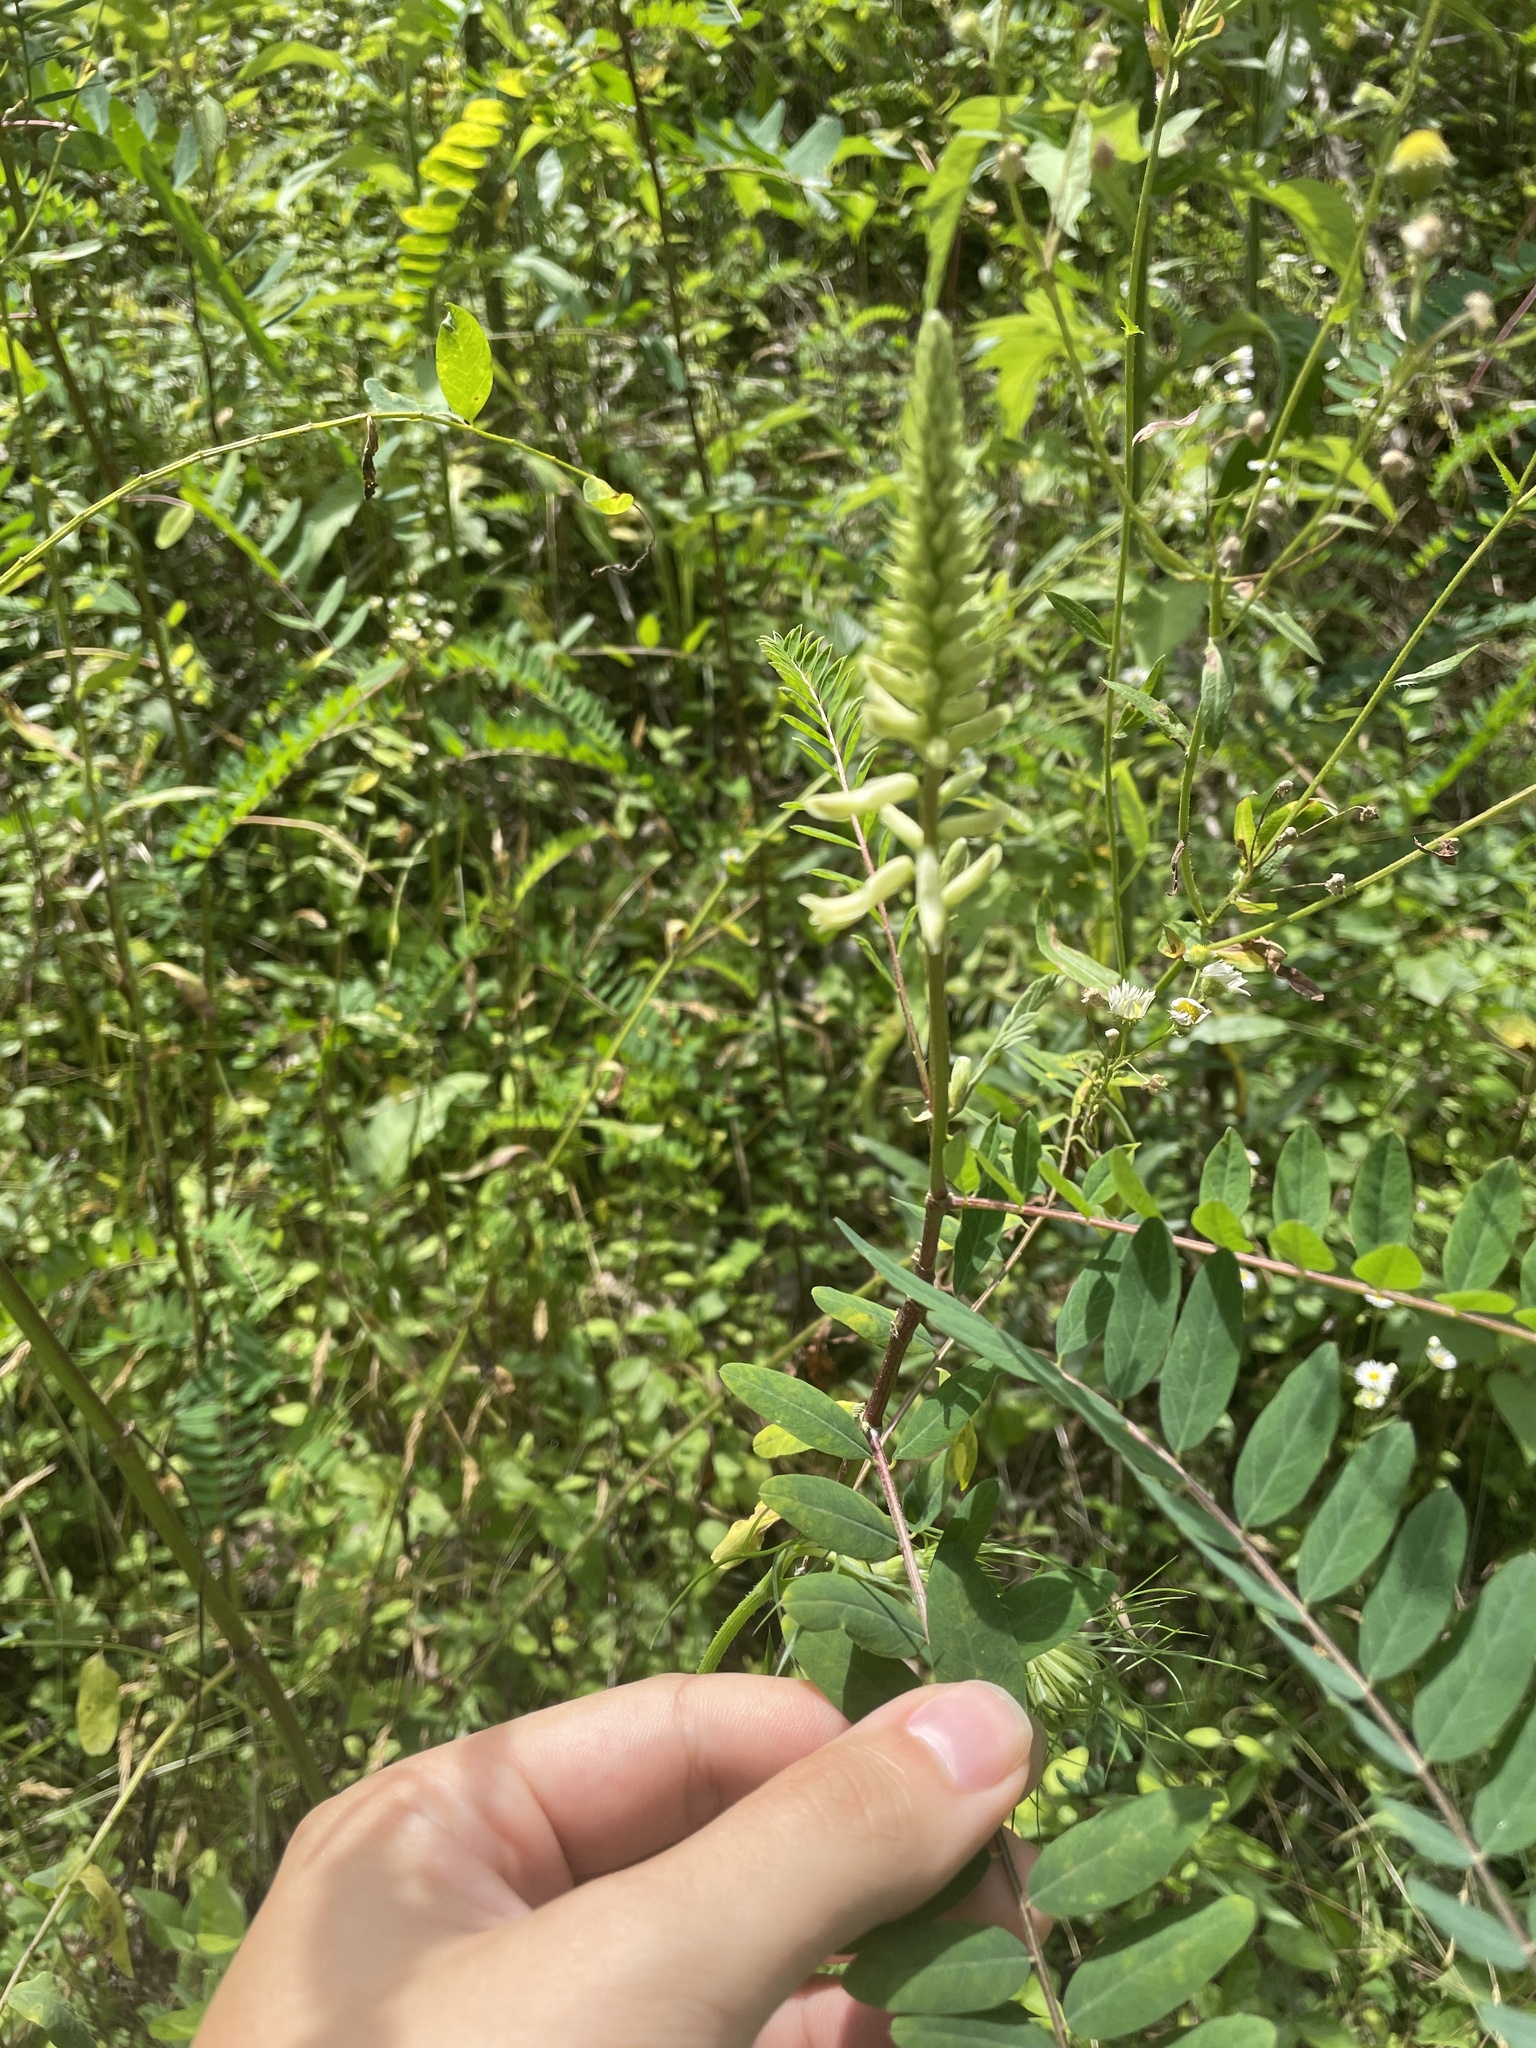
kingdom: Plantae
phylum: Tracheophyta
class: Magnoliopsida
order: Fabales
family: Fabaceae
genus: Astragalus
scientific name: Astragalus canadensis
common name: Canada milk-vetch
